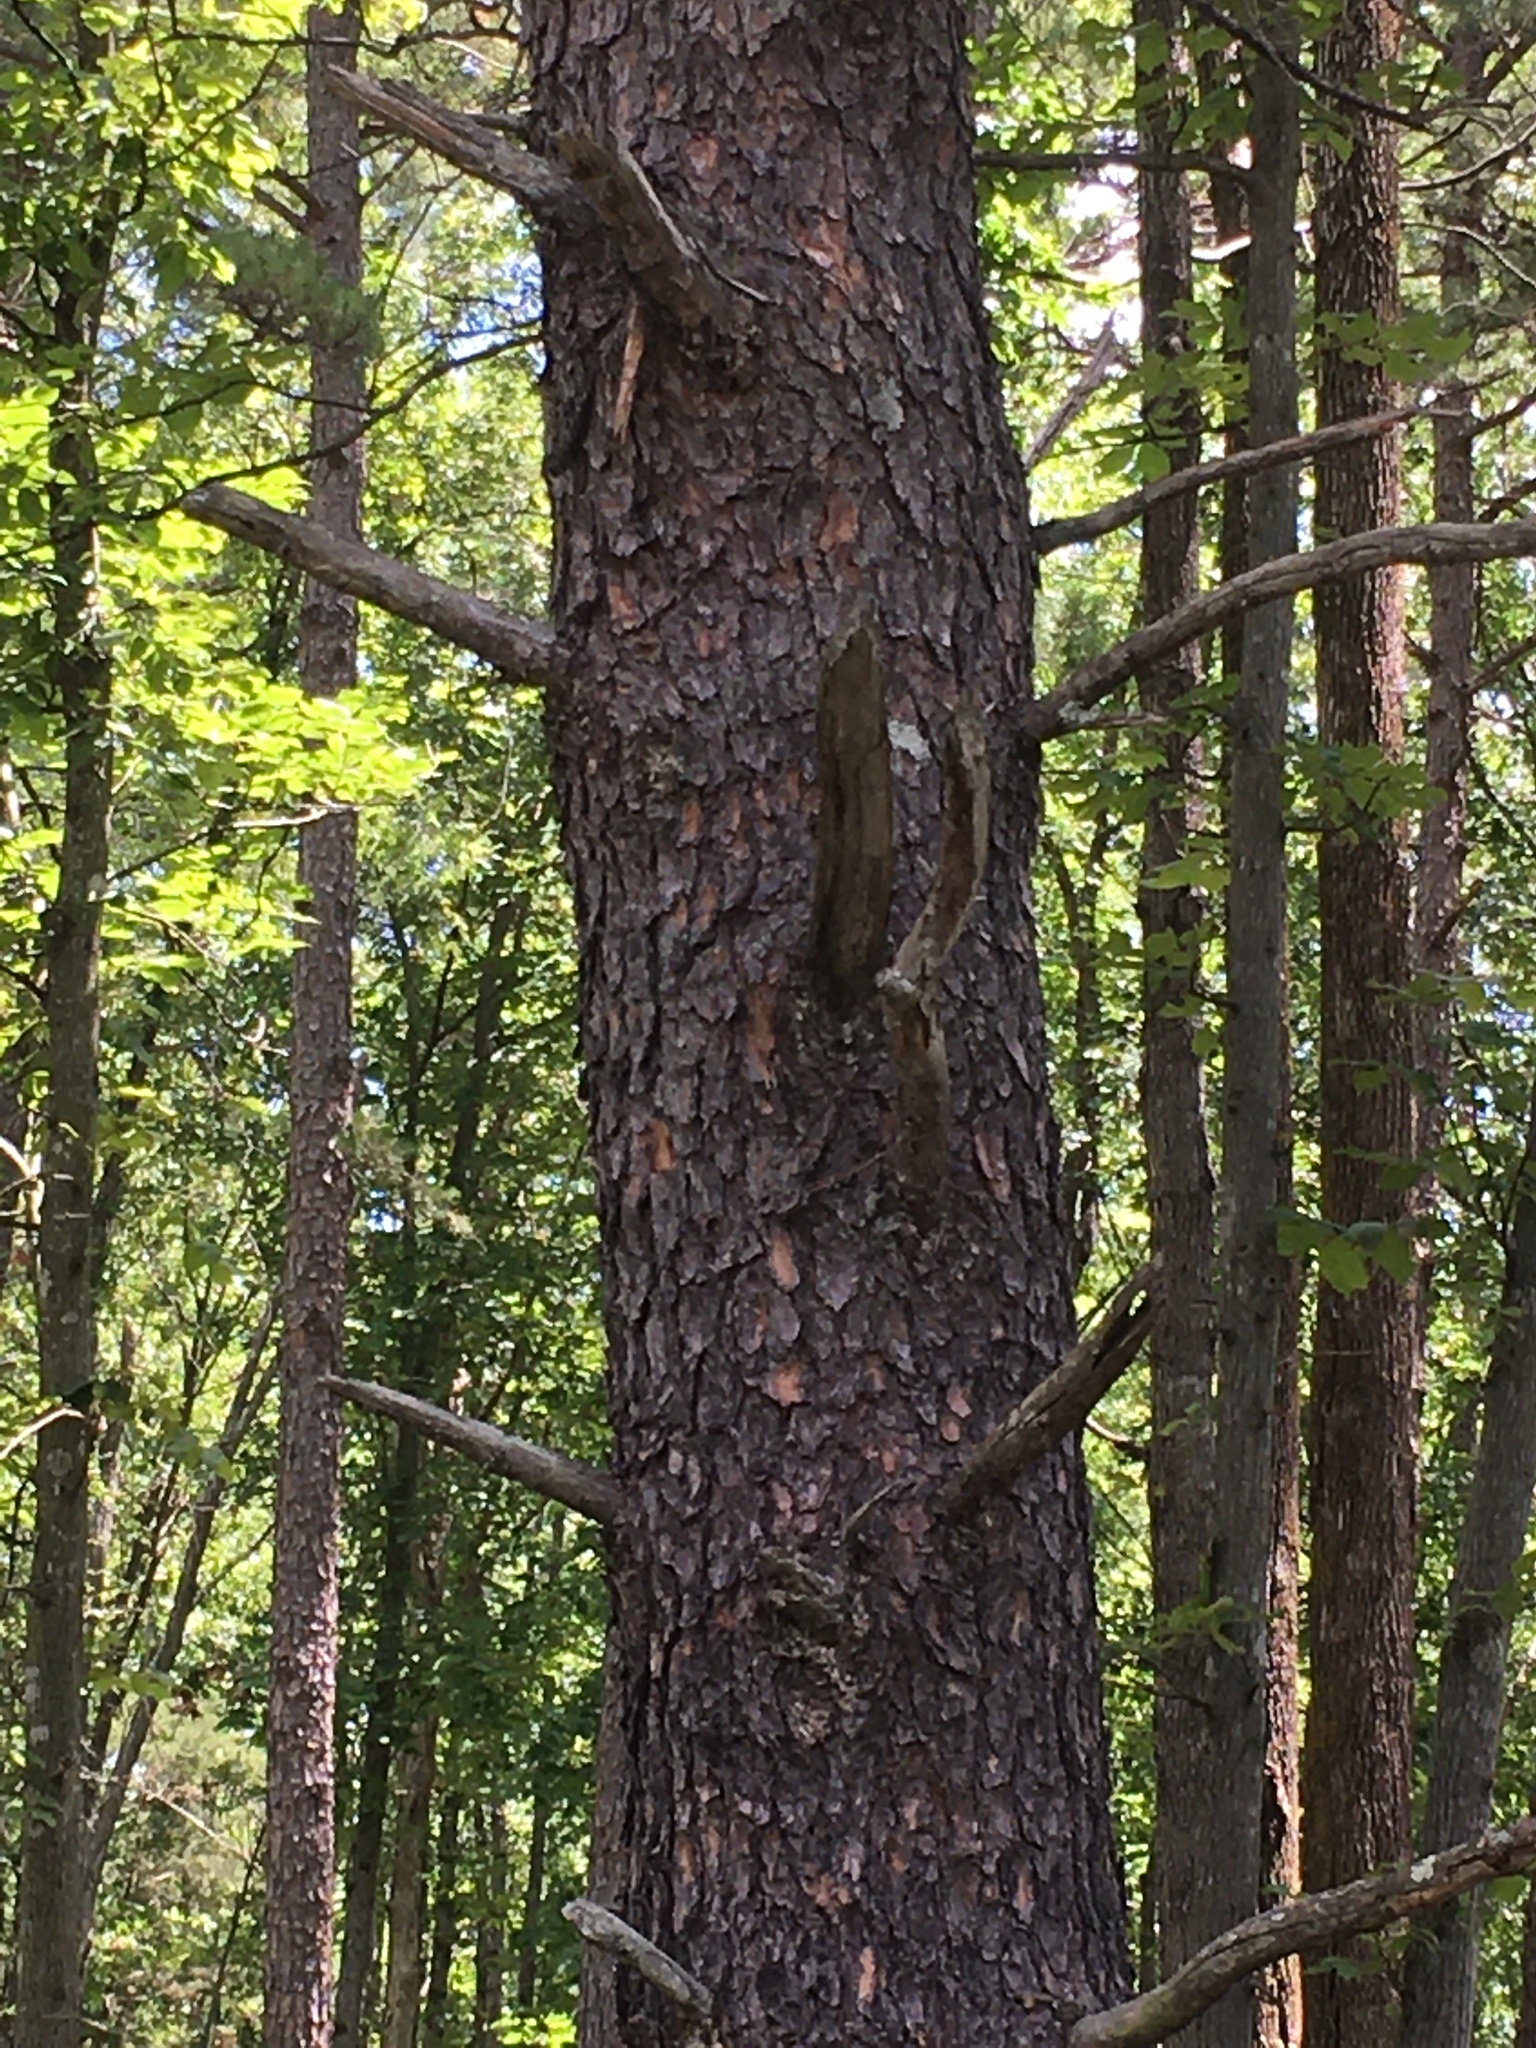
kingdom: Plantae
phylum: Tracheophyta
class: Pinopsida
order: Pinales
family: Pinaceae
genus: Pinus
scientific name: Pinus virginiana
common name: Scrub pine
